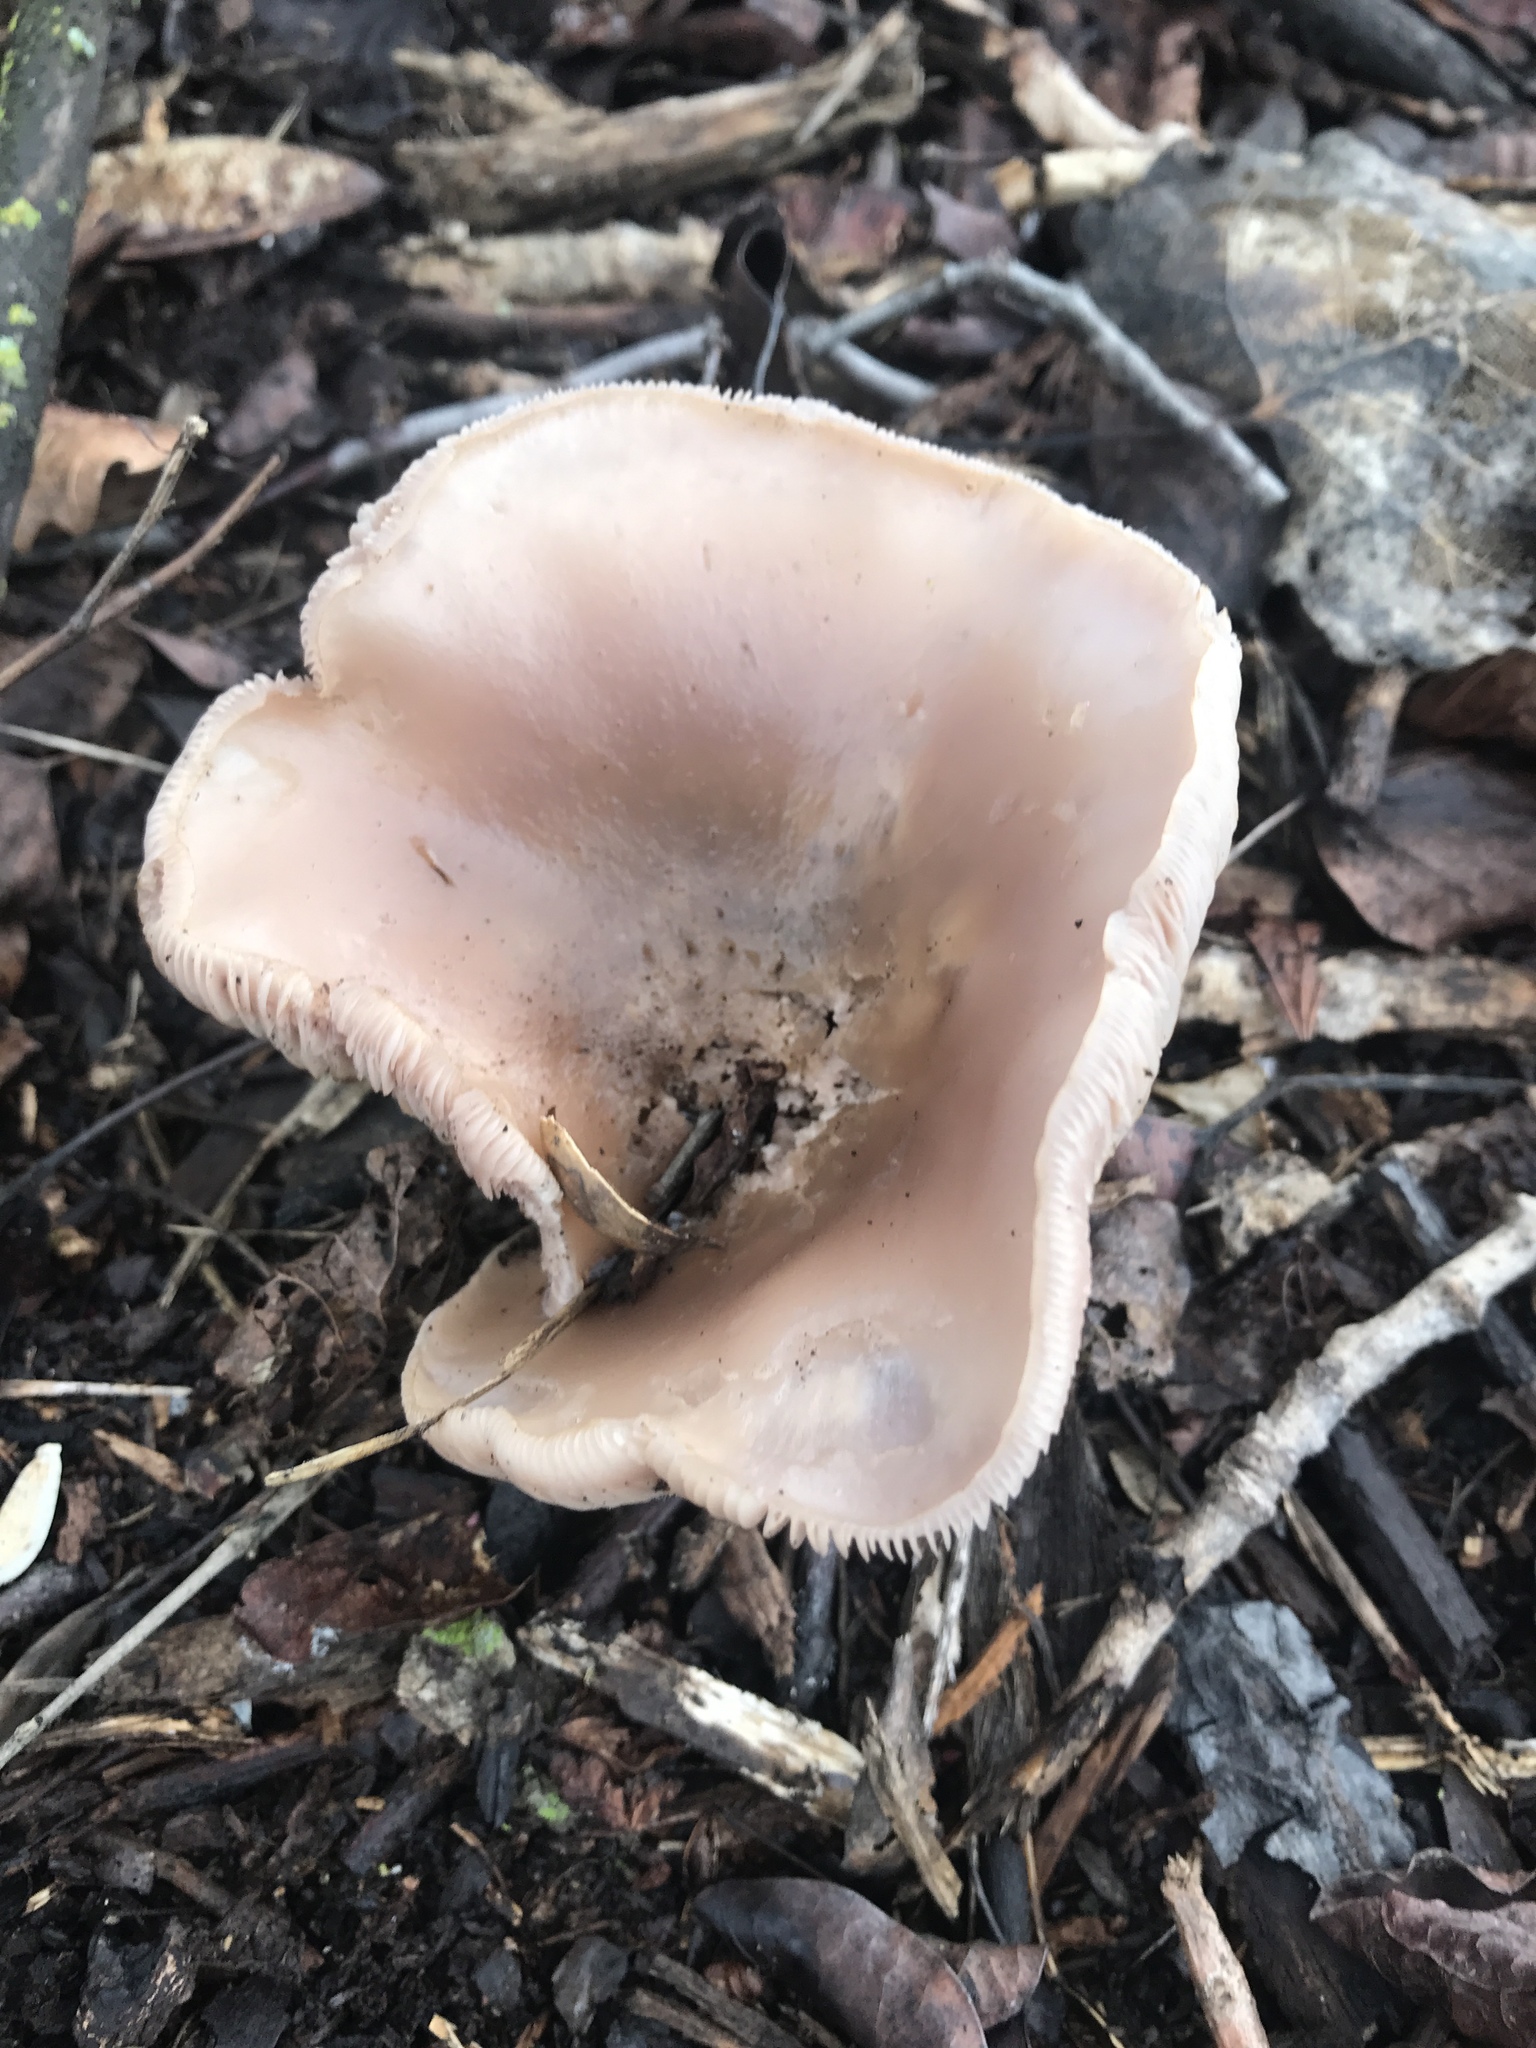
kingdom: Fungi
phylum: Basidiomycota
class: Agaricomycetes
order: Agaricales
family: Tricholomataceae
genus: Collybia
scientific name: Collybia
